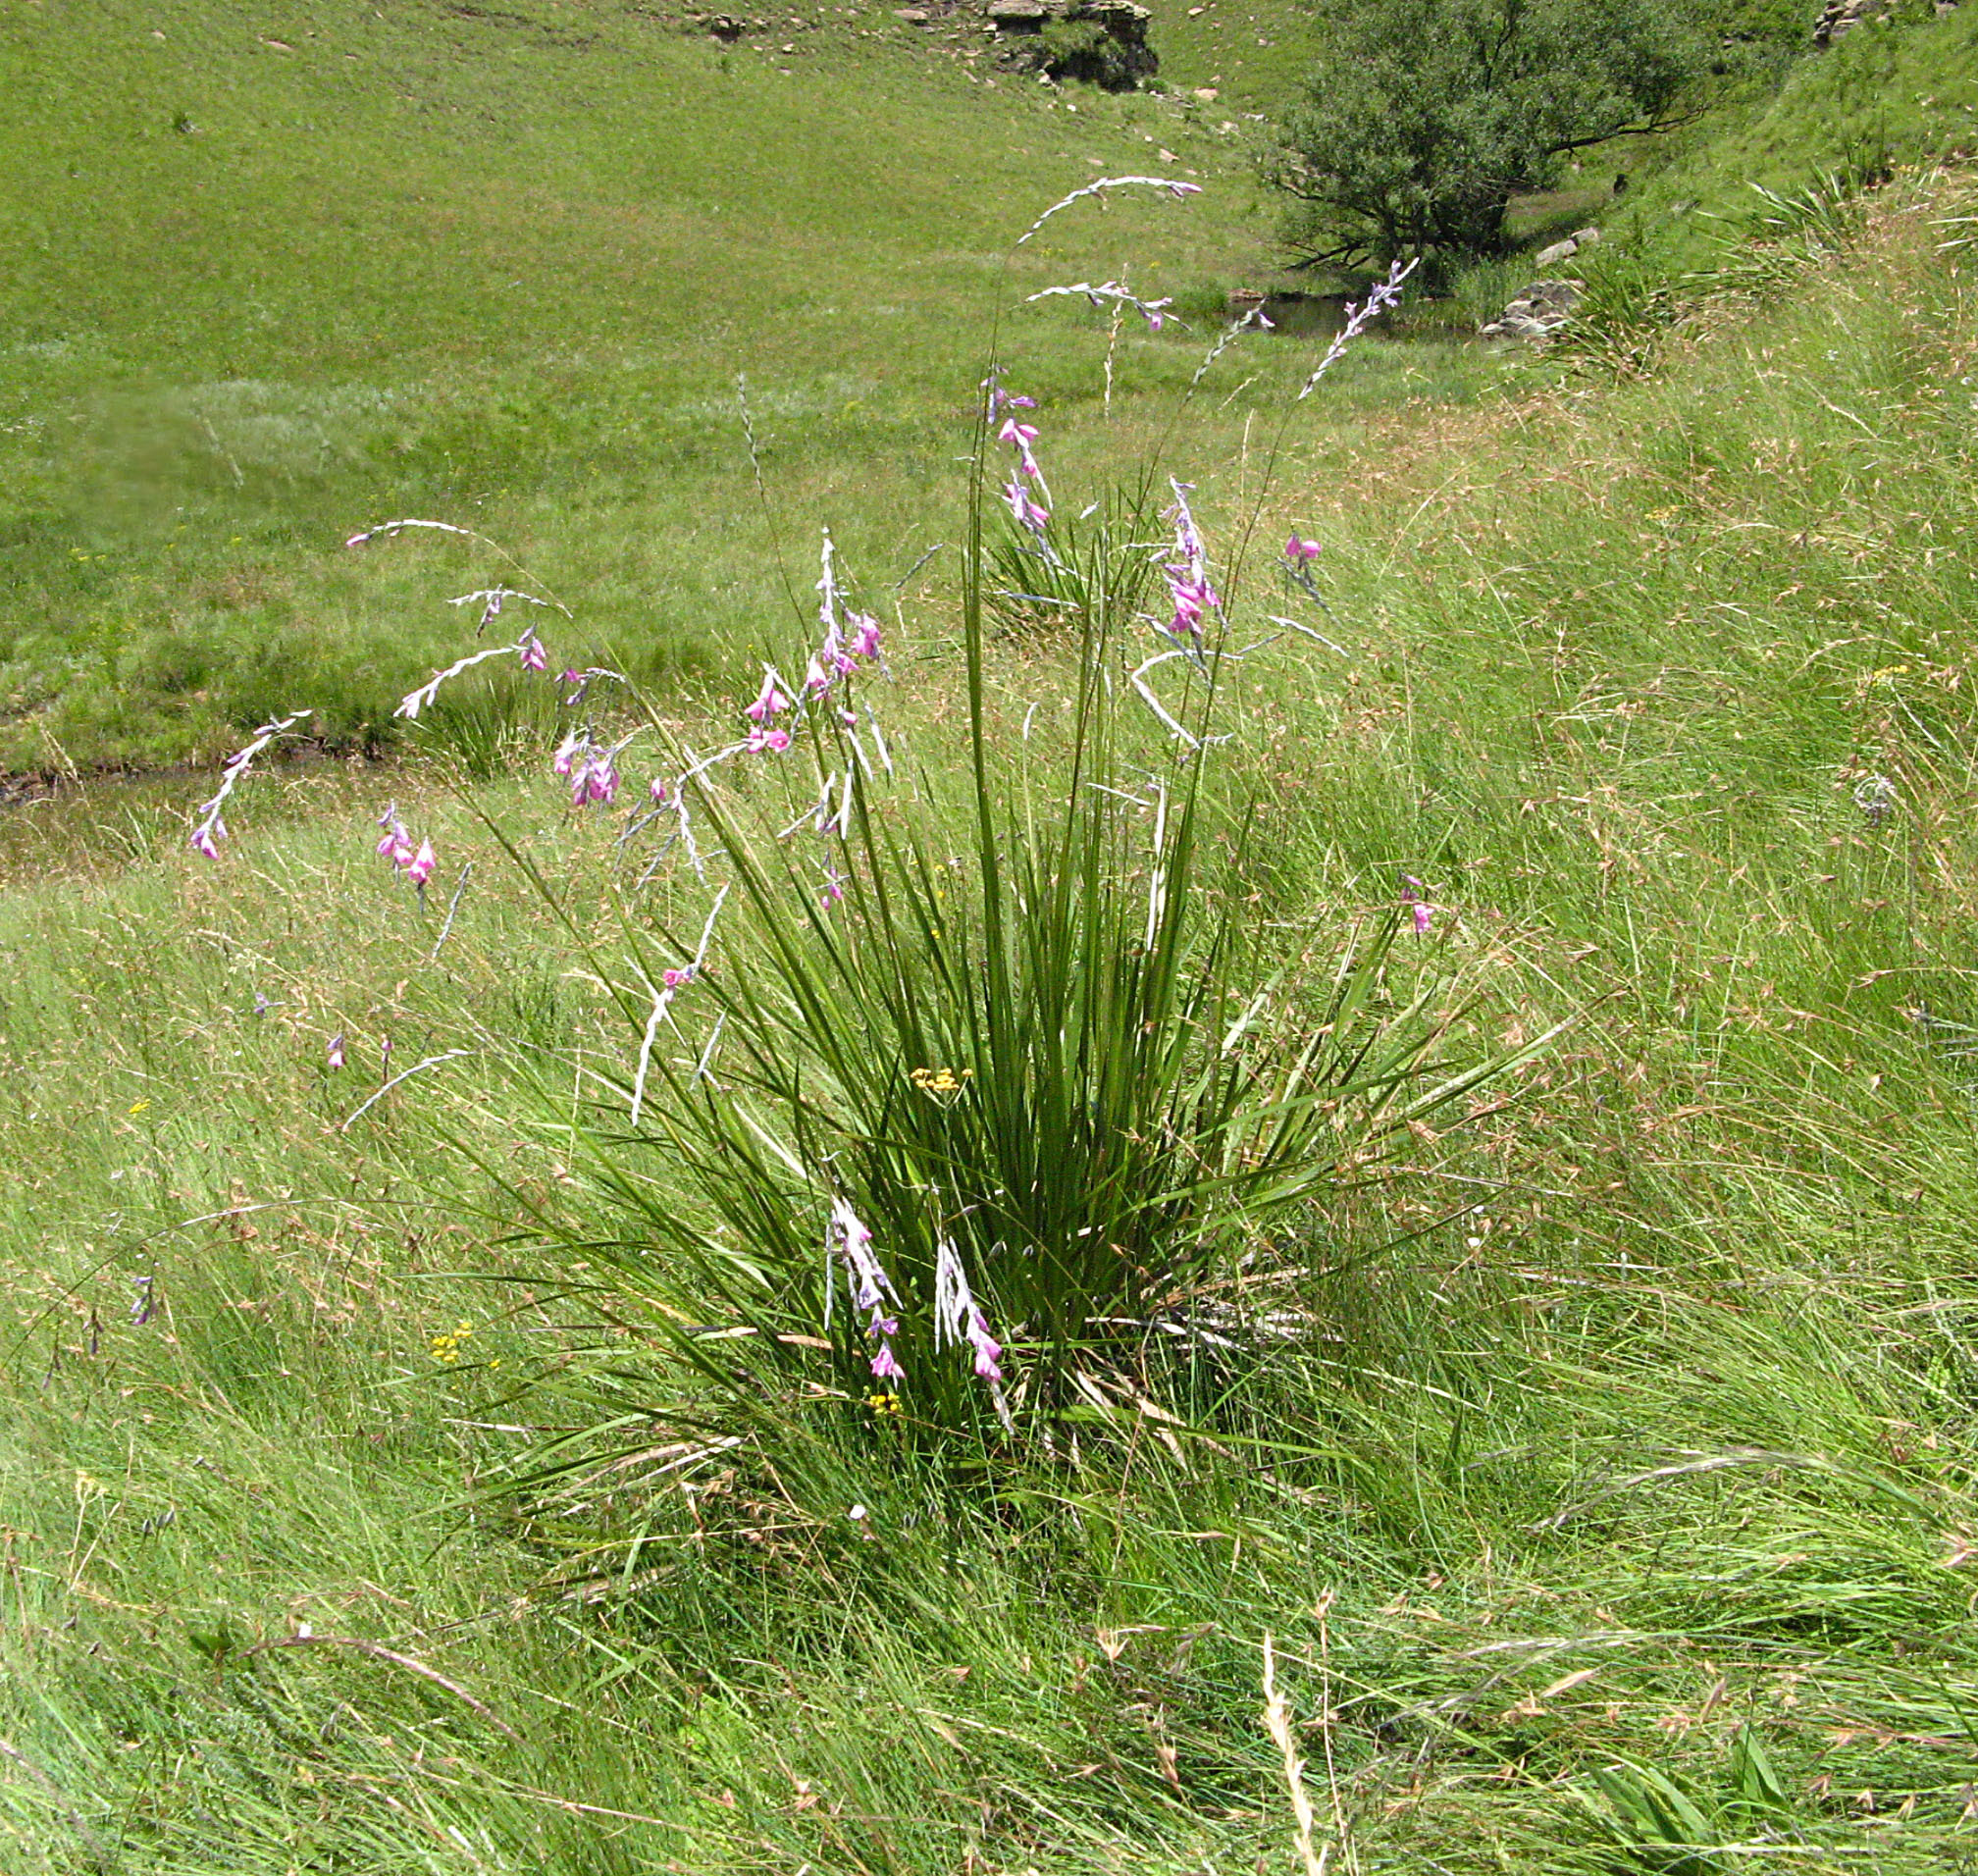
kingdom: Plantae
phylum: Tracheophyta
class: Liliopsida
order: Asparagales
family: Iridaceae
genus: Dierama
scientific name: Dierama latifolium
